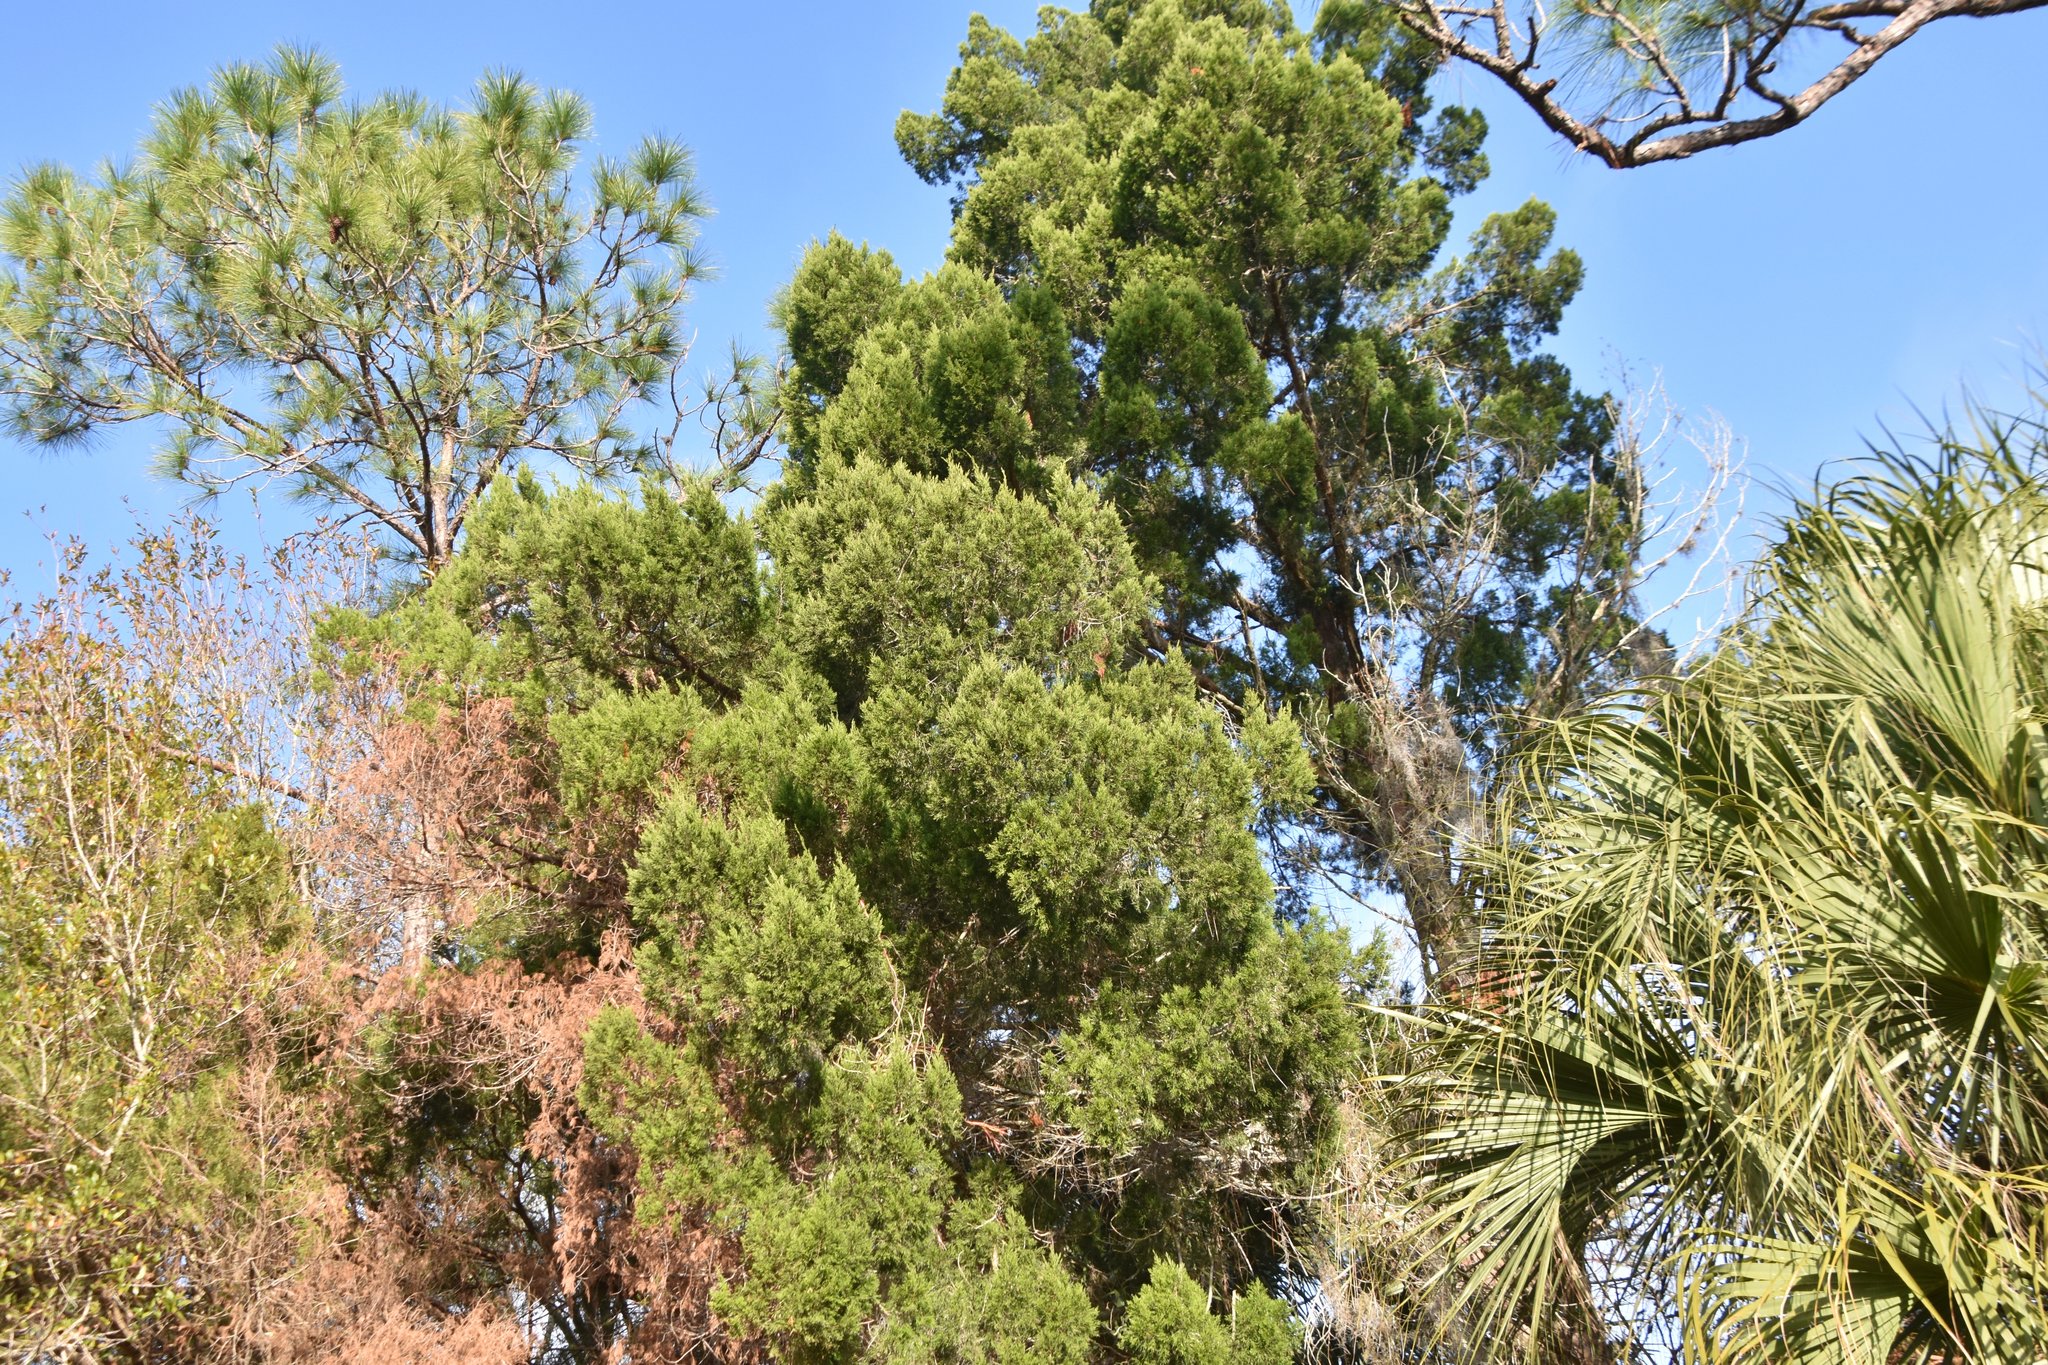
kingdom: Plantae
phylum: Tracheophyta
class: Pinopsida
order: Pinales
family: Cupressaceae
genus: Juniperus
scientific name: Juniperus virginiana
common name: Red juniper
